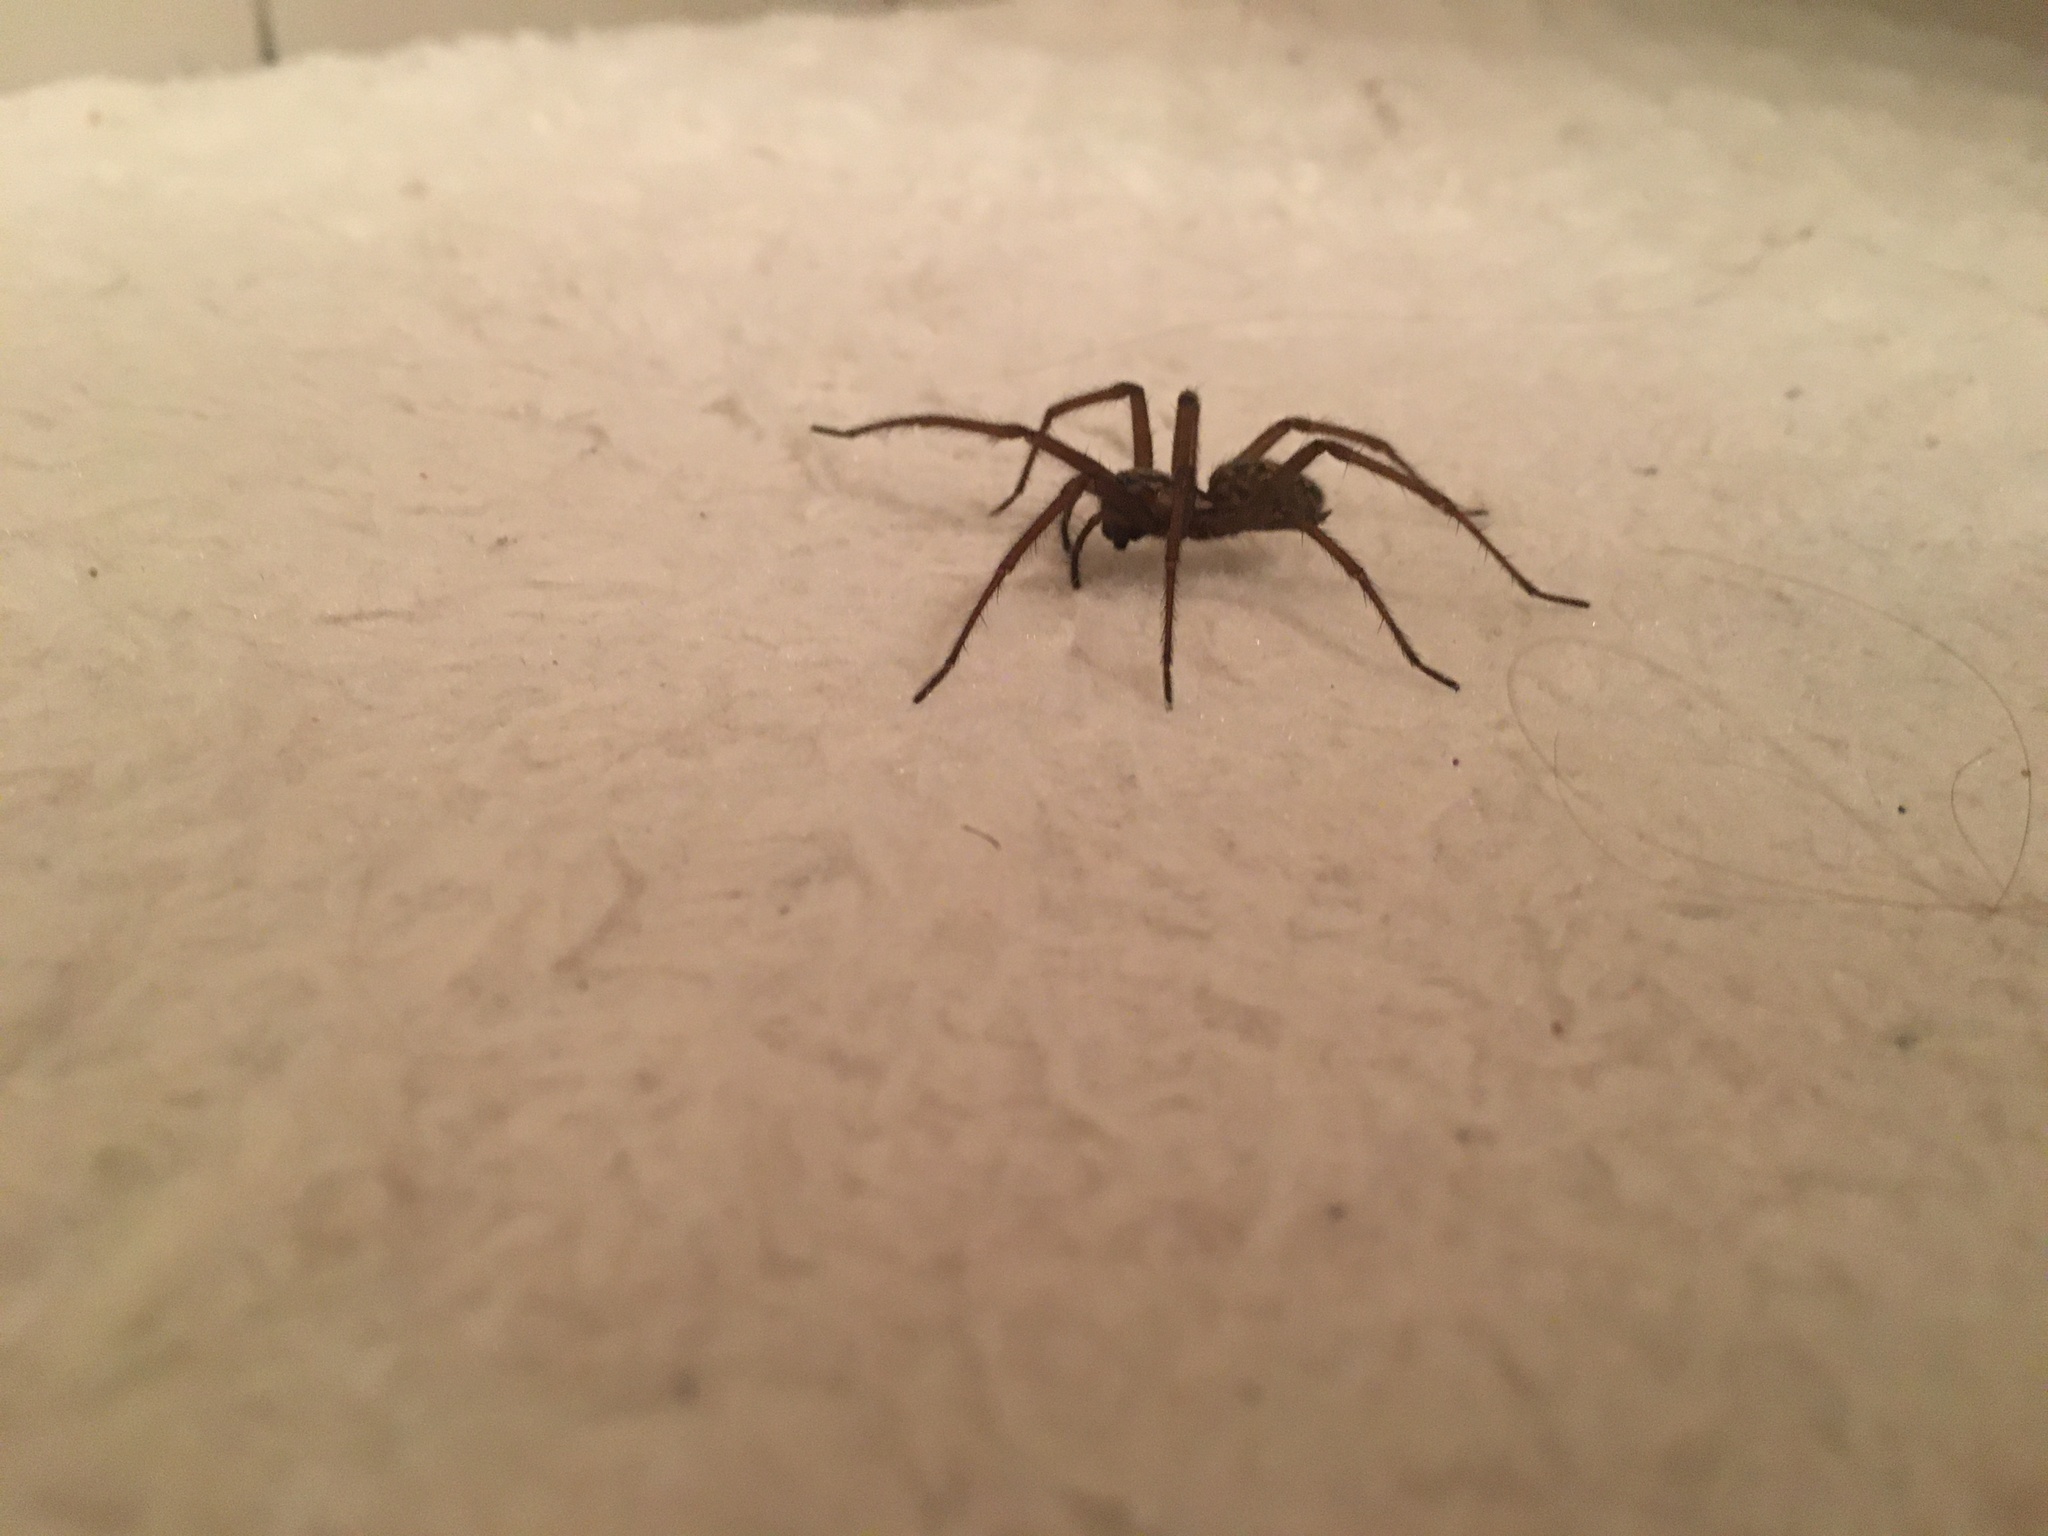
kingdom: Animalia
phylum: Arthropoda
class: Arachnida
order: Araneae
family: Agelenidae
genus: Eratigena
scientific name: Eratigena duellica
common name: Giant house spider
